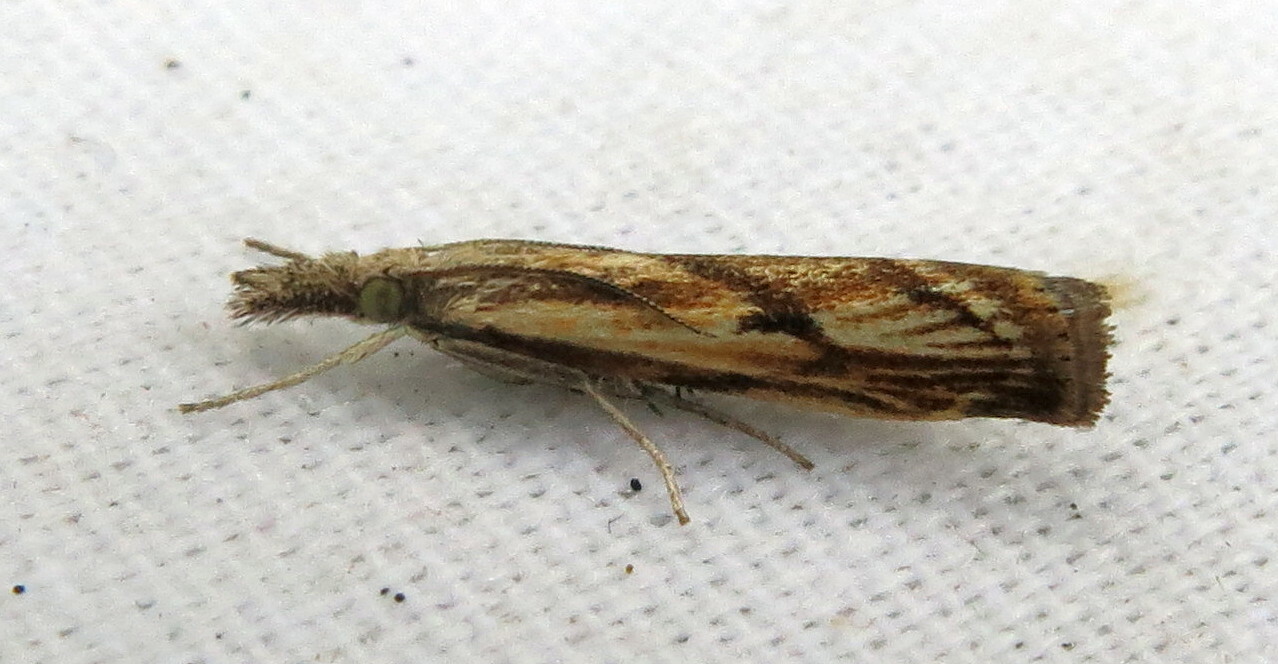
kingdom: Animalia
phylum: Arthropoda
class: Insecta
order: Lepidoptera
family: Crambidae
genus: Agriphila
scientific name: Agriphila inquinatella
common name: Barred grass-veneer
